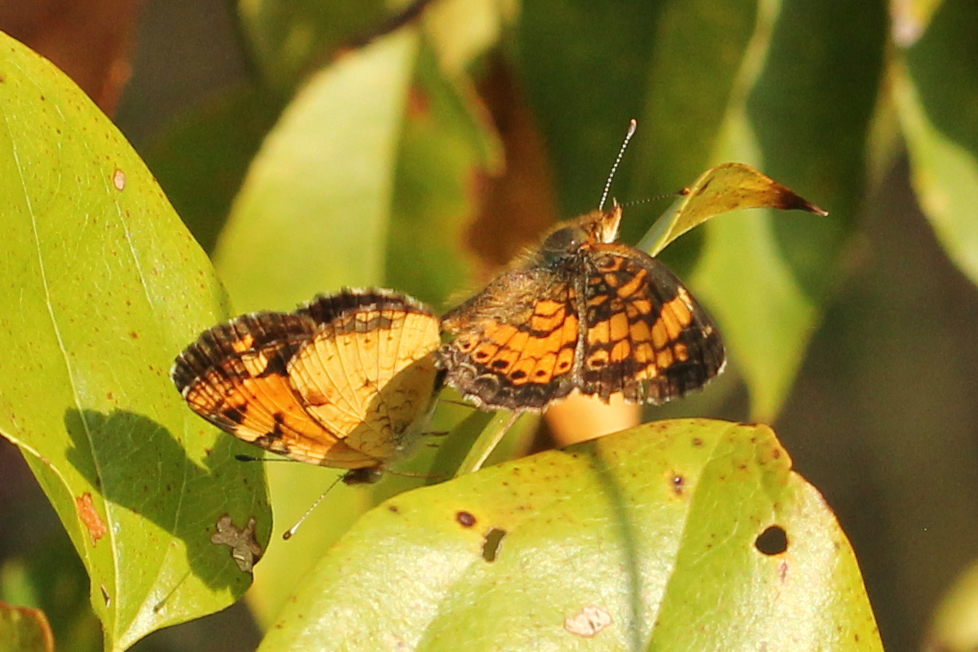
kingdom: Animalia
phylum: Arthropoda
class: Insecta
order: Lepidoptera
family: Nymphalidae
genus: Phyciodes
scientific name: Phyciodes tharos
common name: Pearl crescent
